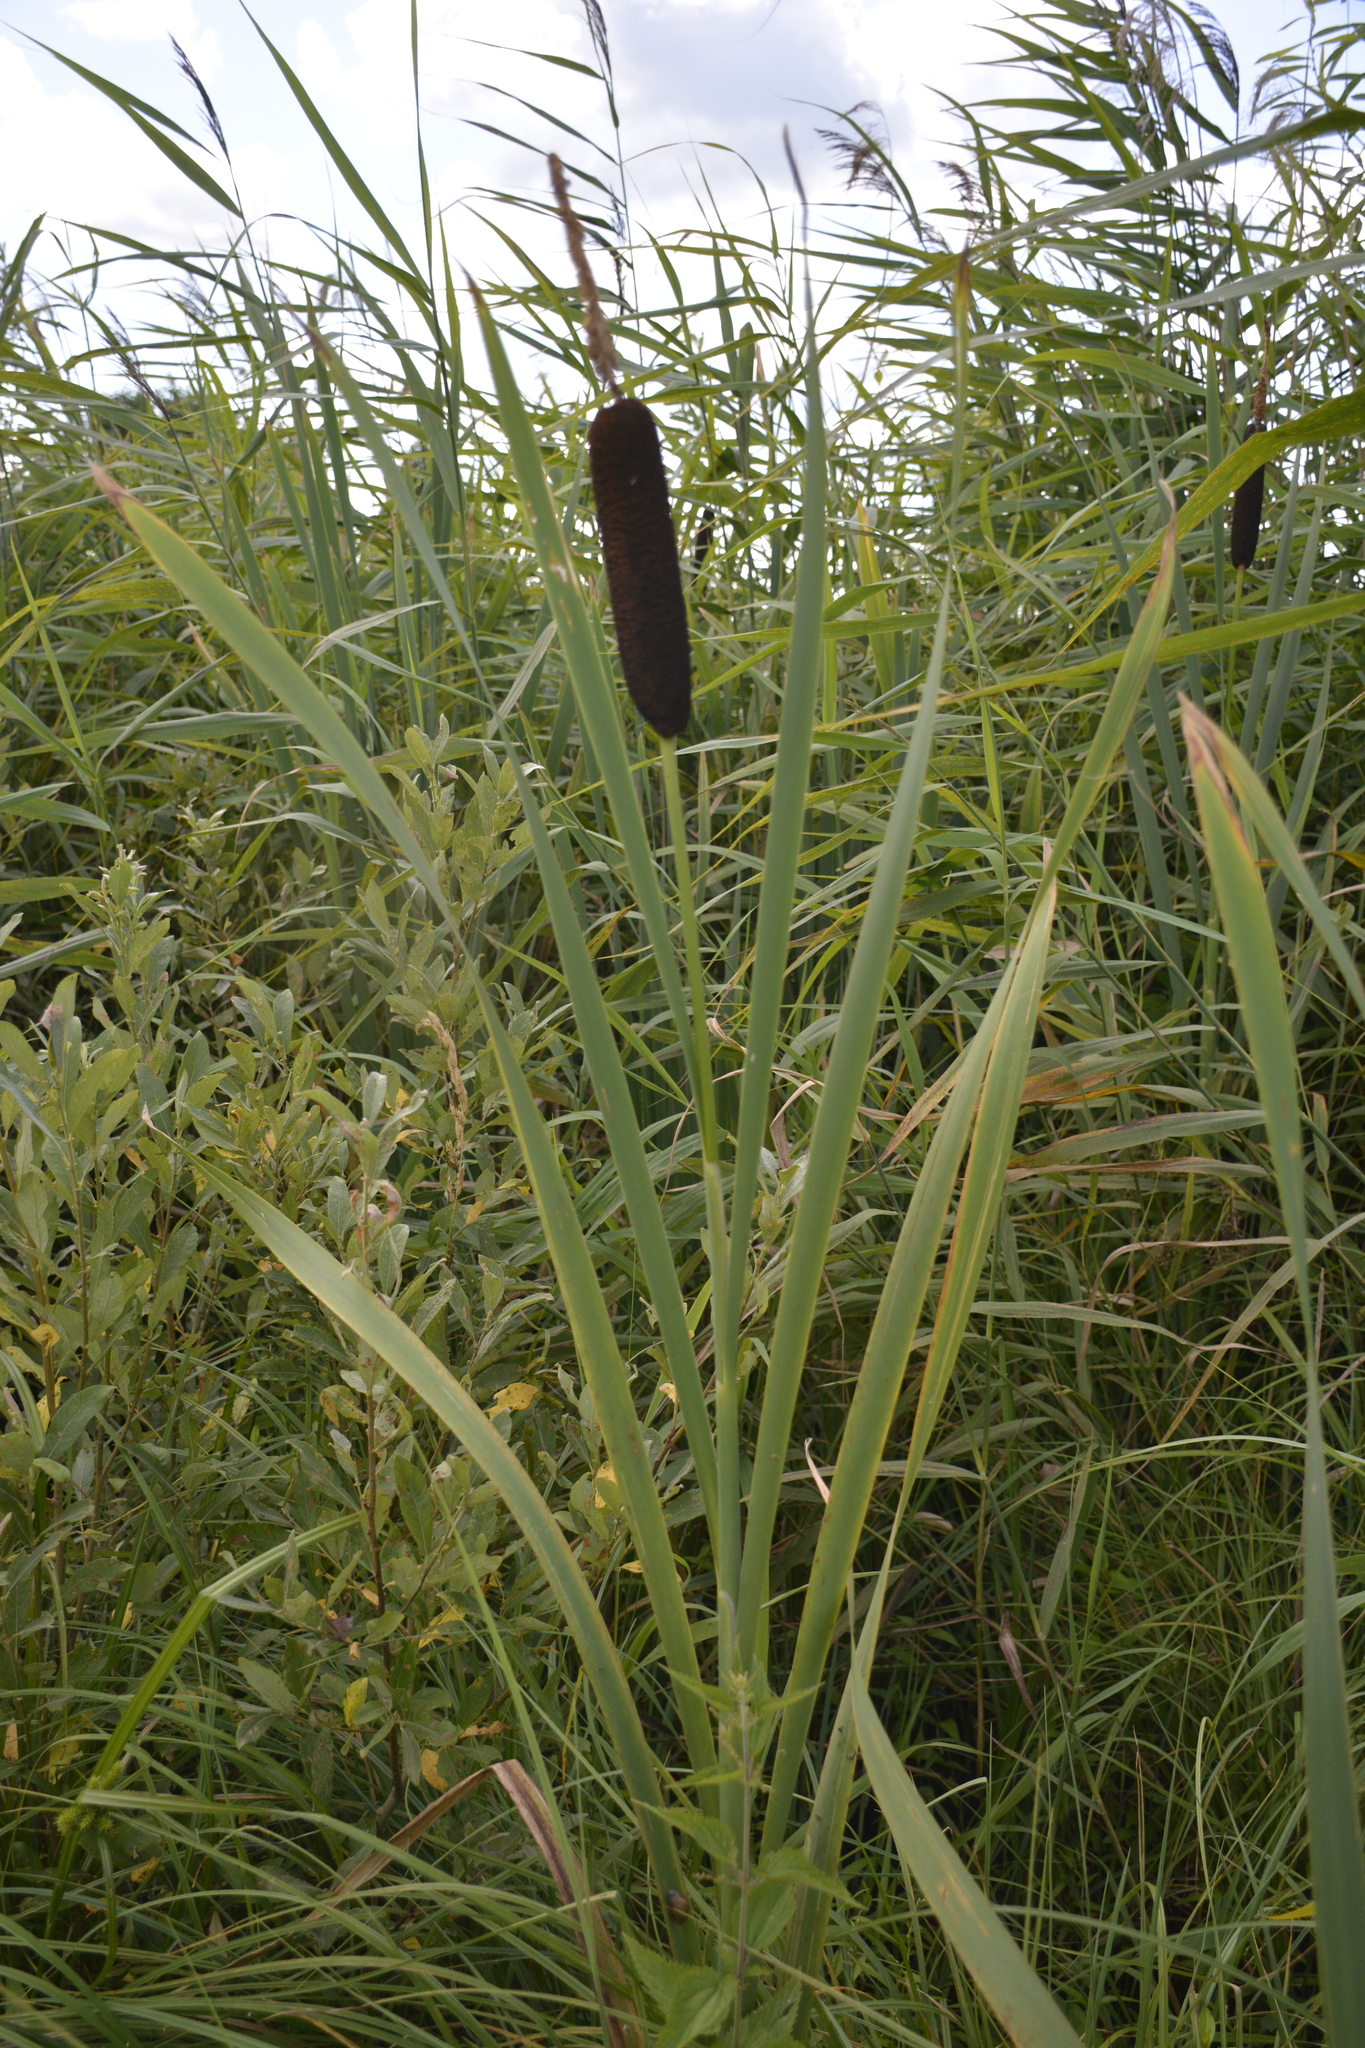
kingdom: Plantae
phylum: Tracheophyta
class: Liliopsida
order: Poales
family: Typhaceae
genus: Typha
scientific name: Typha latifolia
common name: Broadleaf cattail
